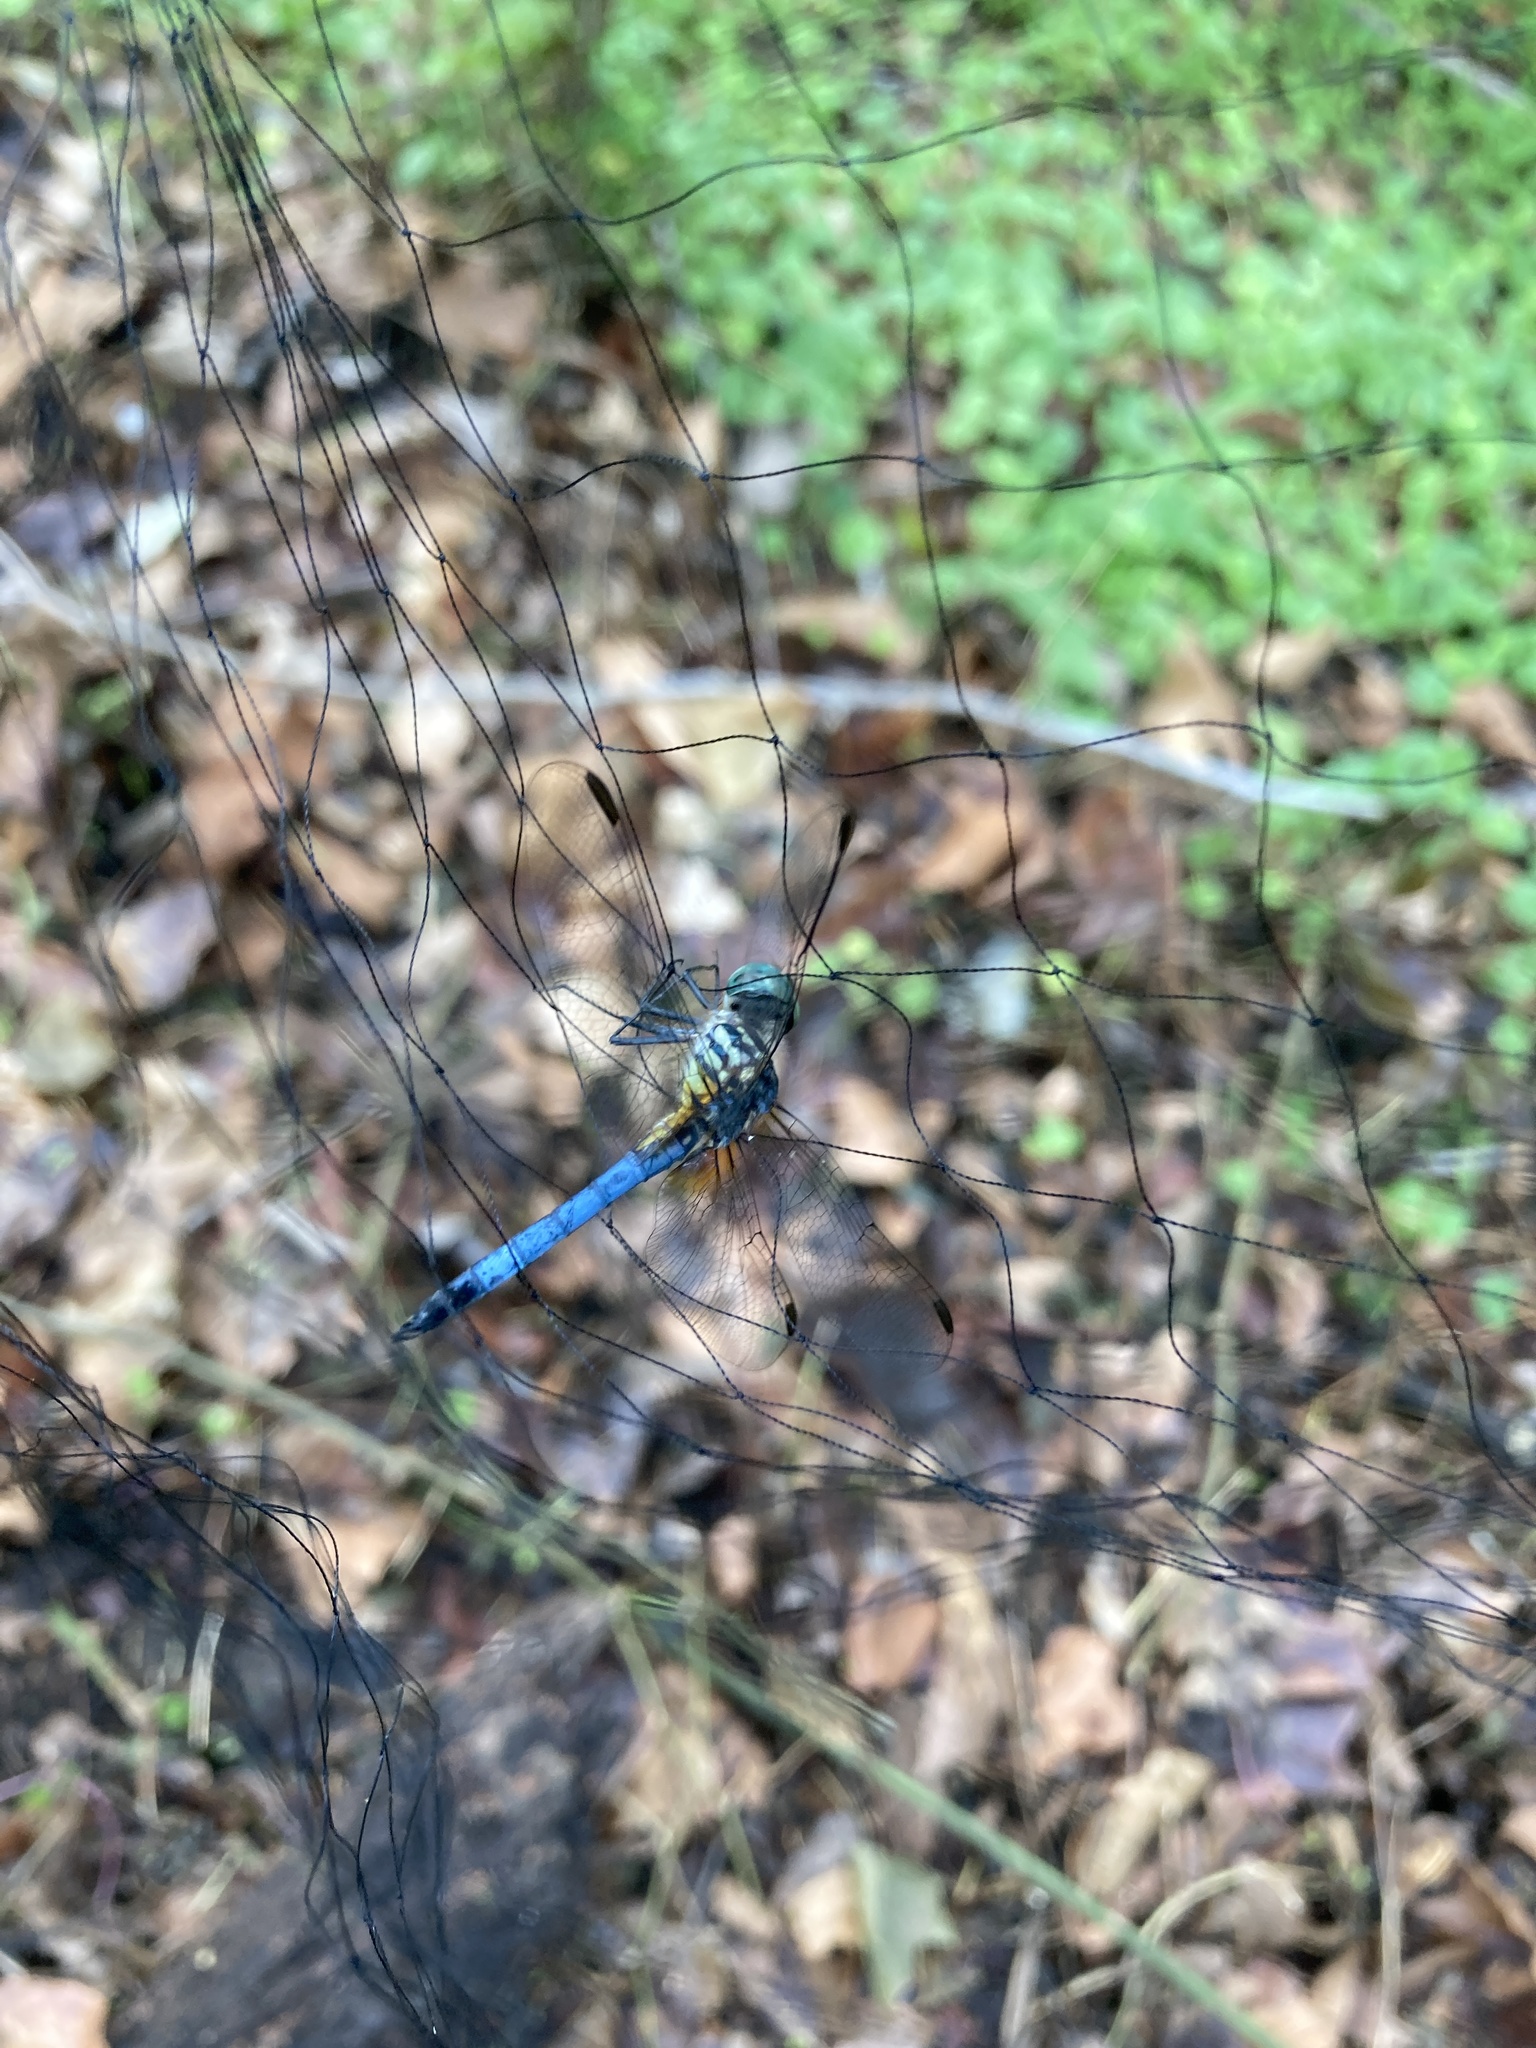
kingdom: Animalia
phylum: Arthropoda
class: Insecta
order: Odonata
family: Libellulidae
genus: Pachydiplax
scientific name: Pachydiplax longipennis
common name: Blue dasher
